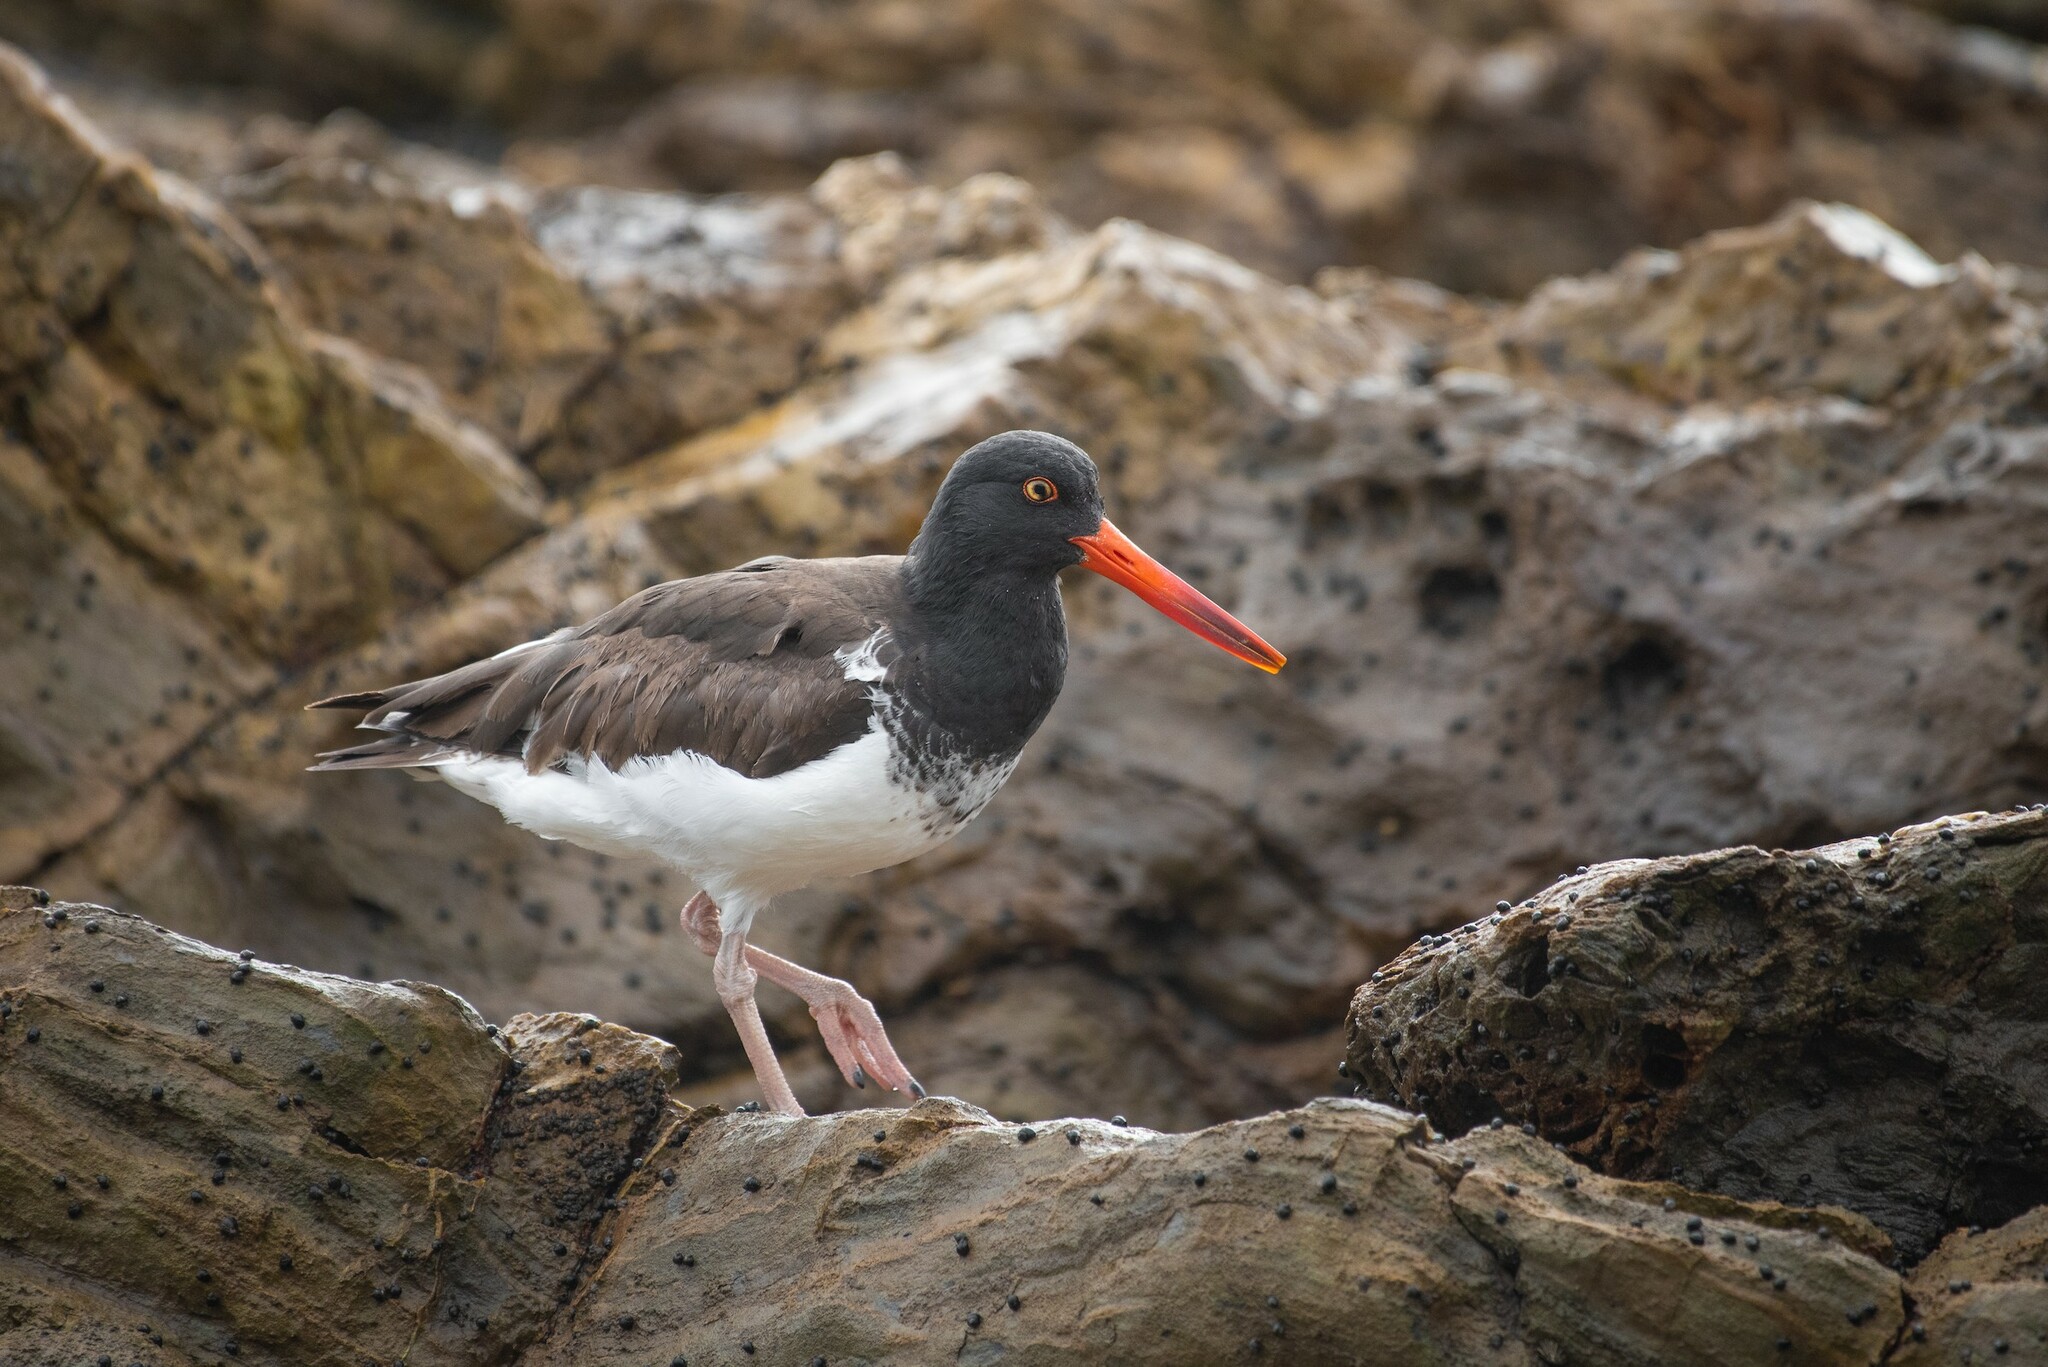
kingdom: Animalia
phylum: Chordata
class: Aves
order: Charadriiformes
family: Haematopodidae
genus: Haematopus
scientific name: Haematopus palliatus
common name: American oystercatcher
